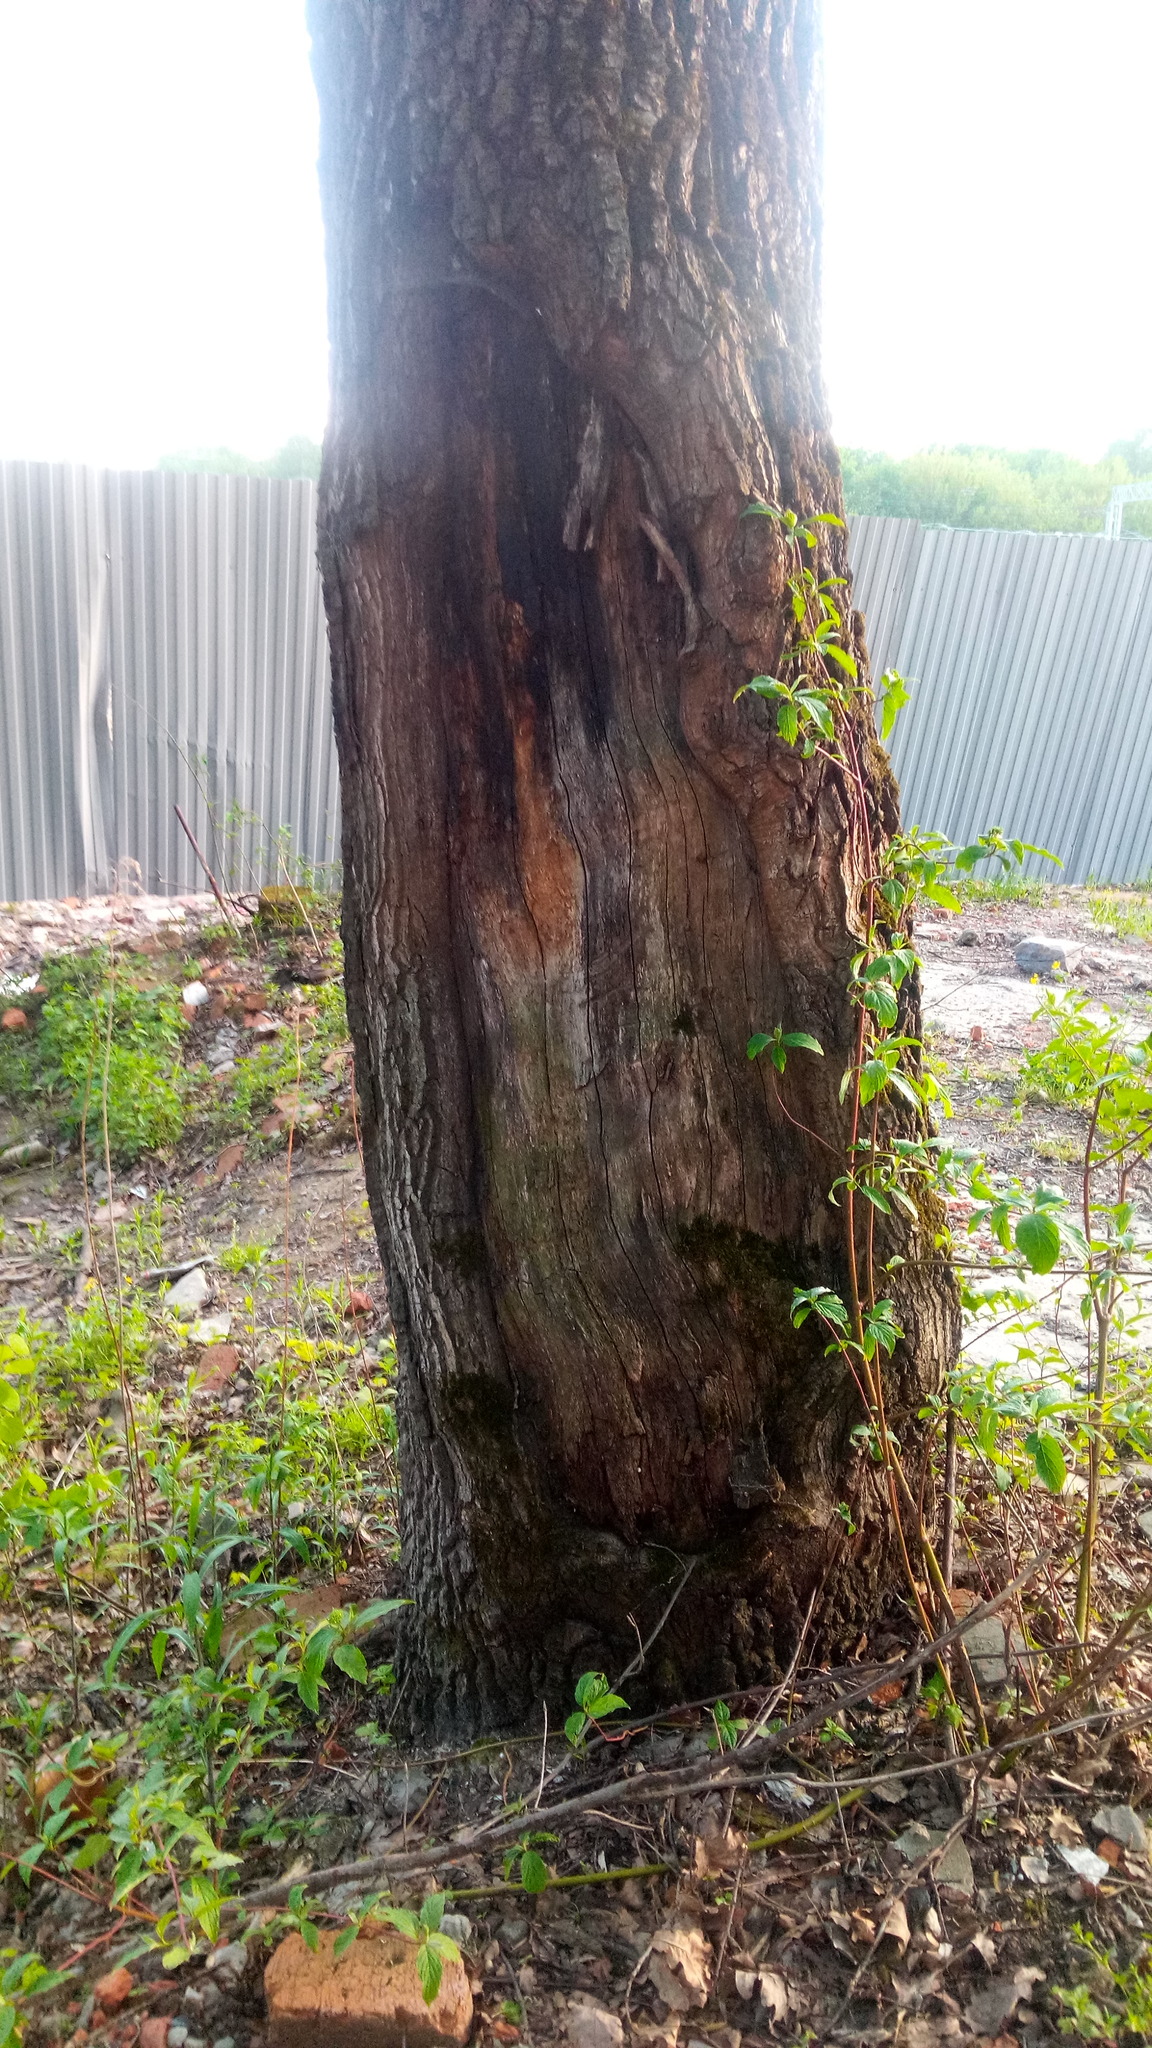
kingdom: Plantae
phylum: Tracheophyta
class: Magnoliopsida
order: Fagales
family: Fagaceae
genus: Quercus
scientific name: Quercus robur
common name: Pedunculate oak
